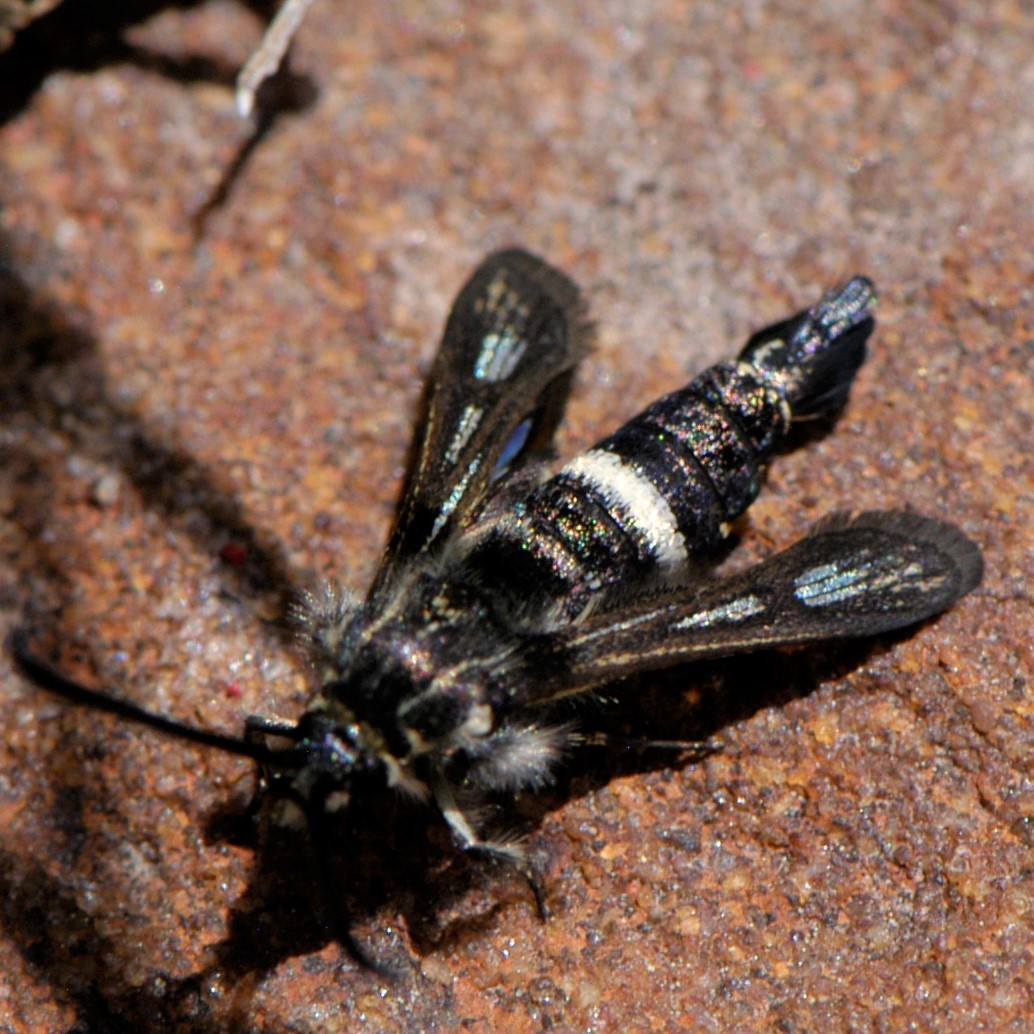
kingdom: Animalia
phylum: Arthropoda
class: Insecta
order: Lepidoptera
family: Sesiidae
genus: Penstemonia
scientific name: Penstemonia clarkei
